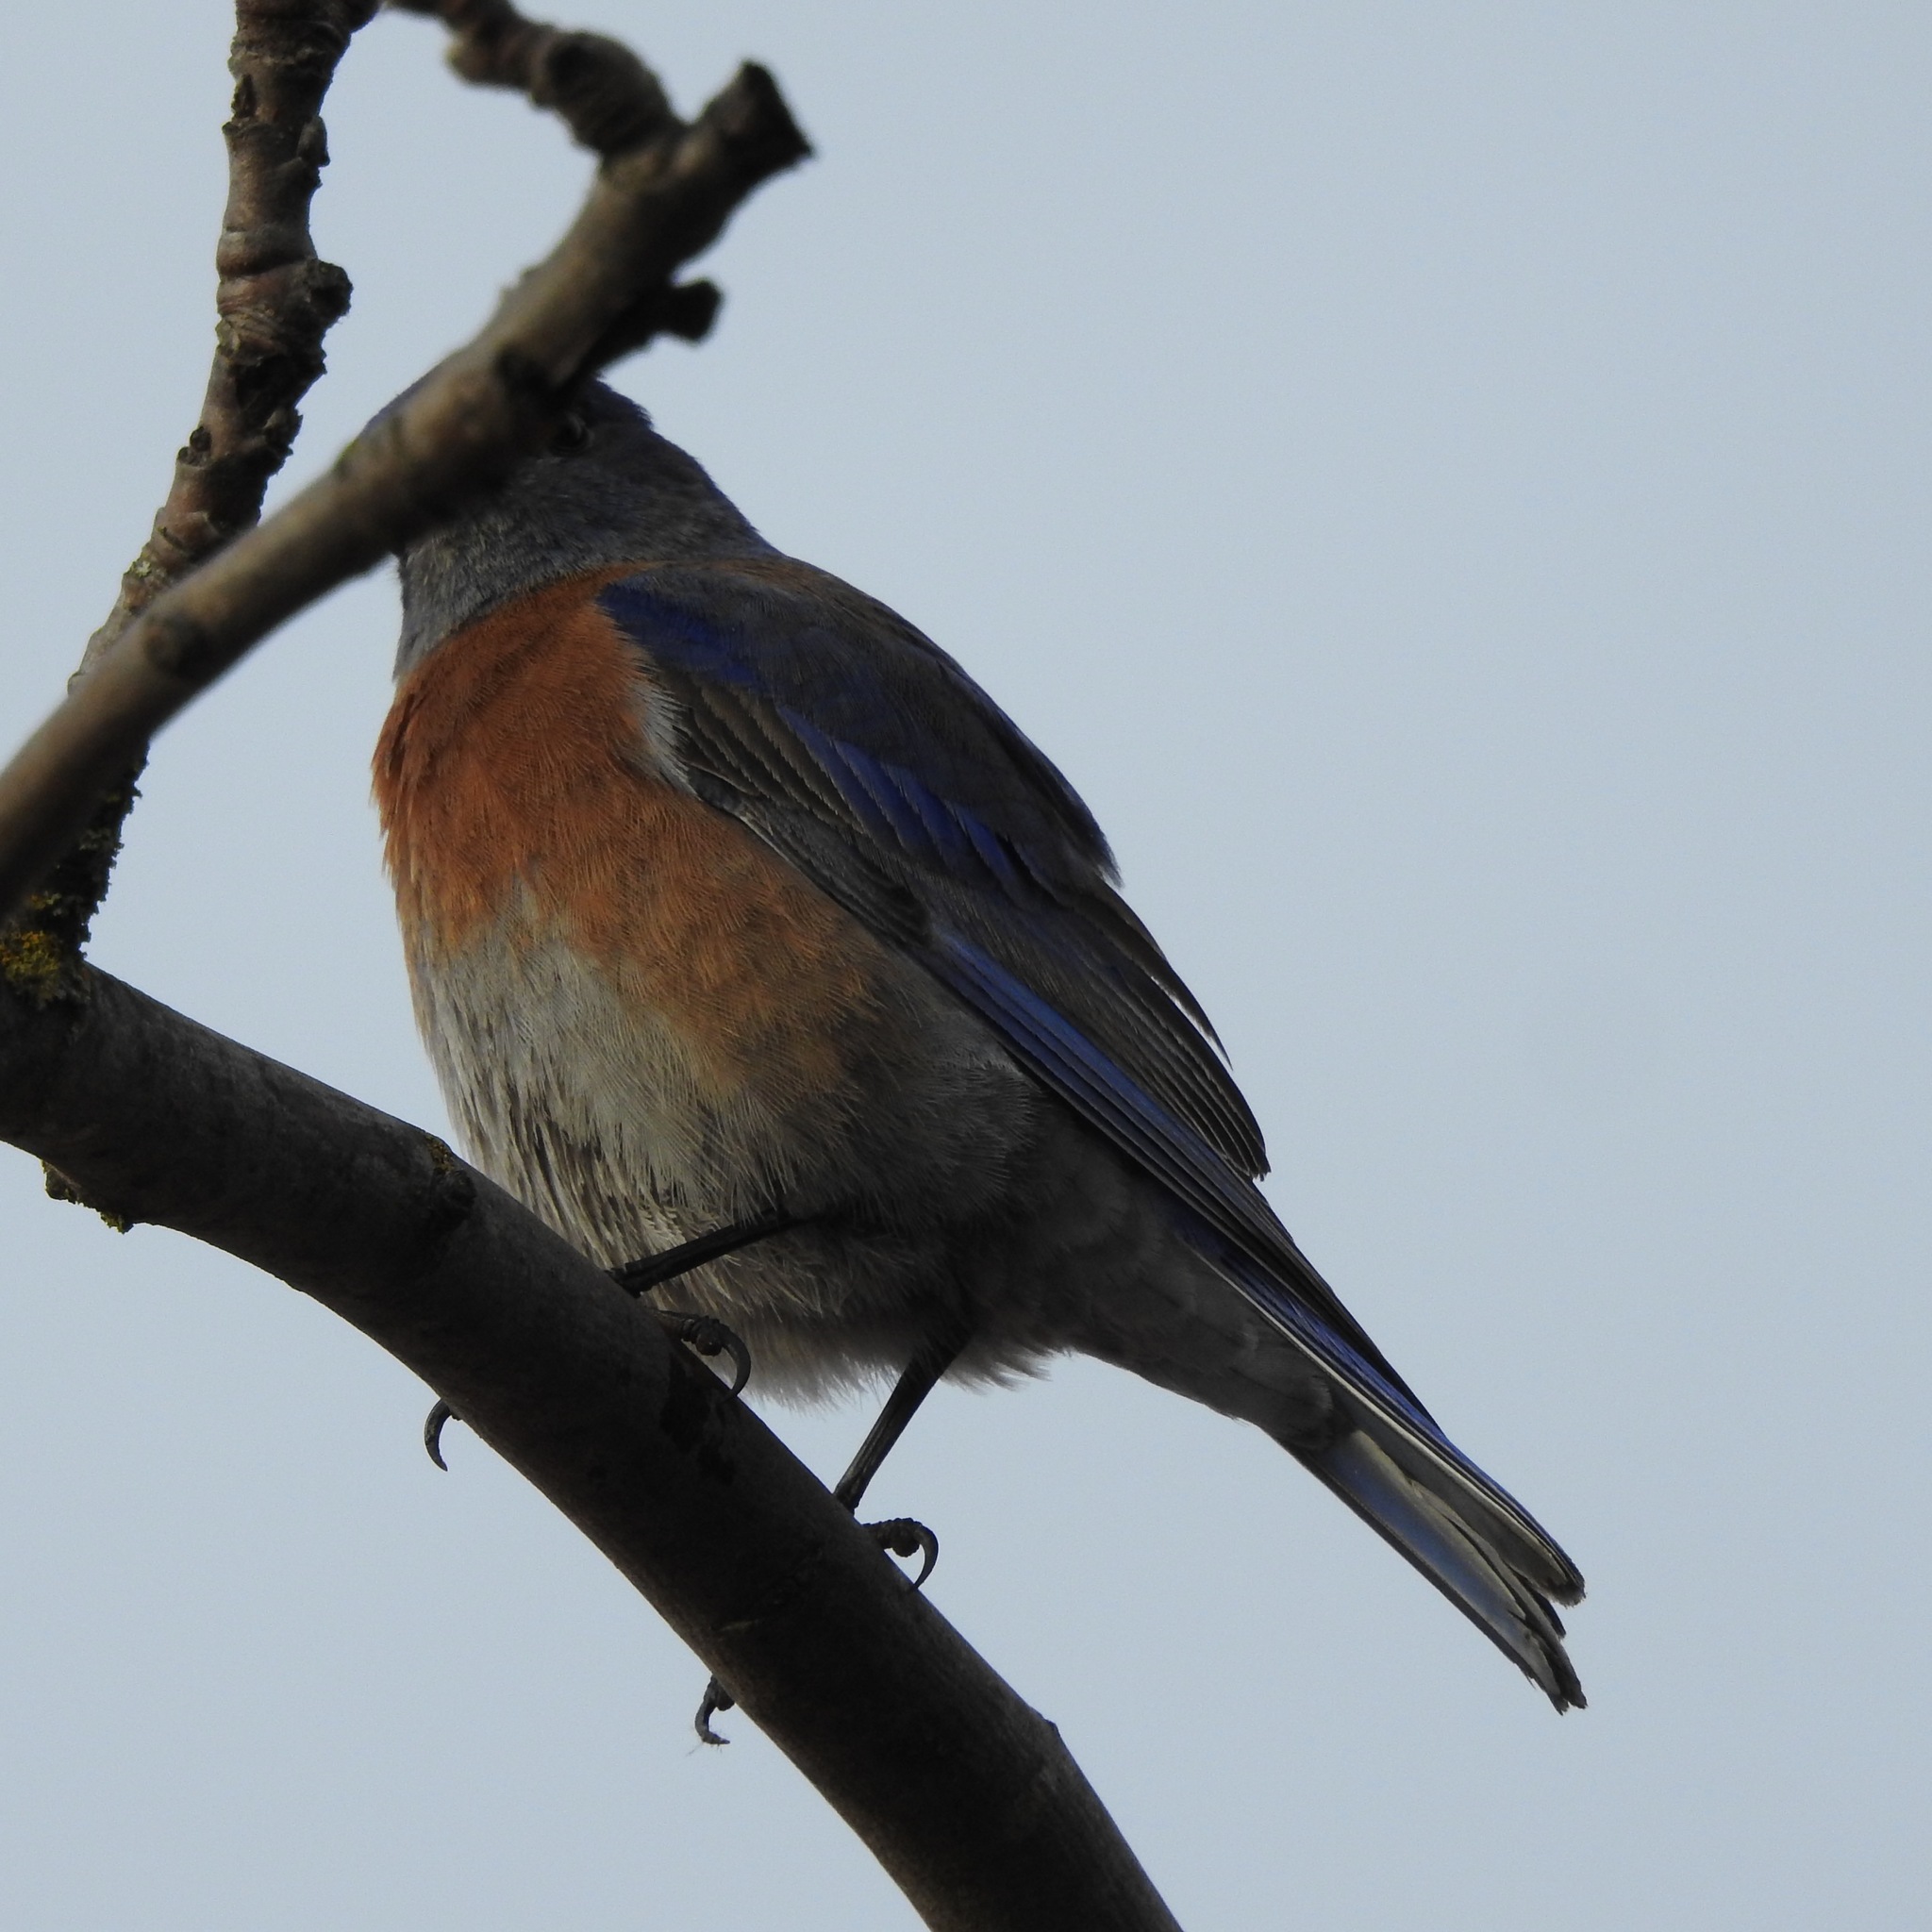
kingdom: Animalia
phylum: Chordata
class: Aves
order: Passeriformes
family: Turdidae
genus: Sialia
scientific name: Sialia mexicana
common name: Western bluebird
